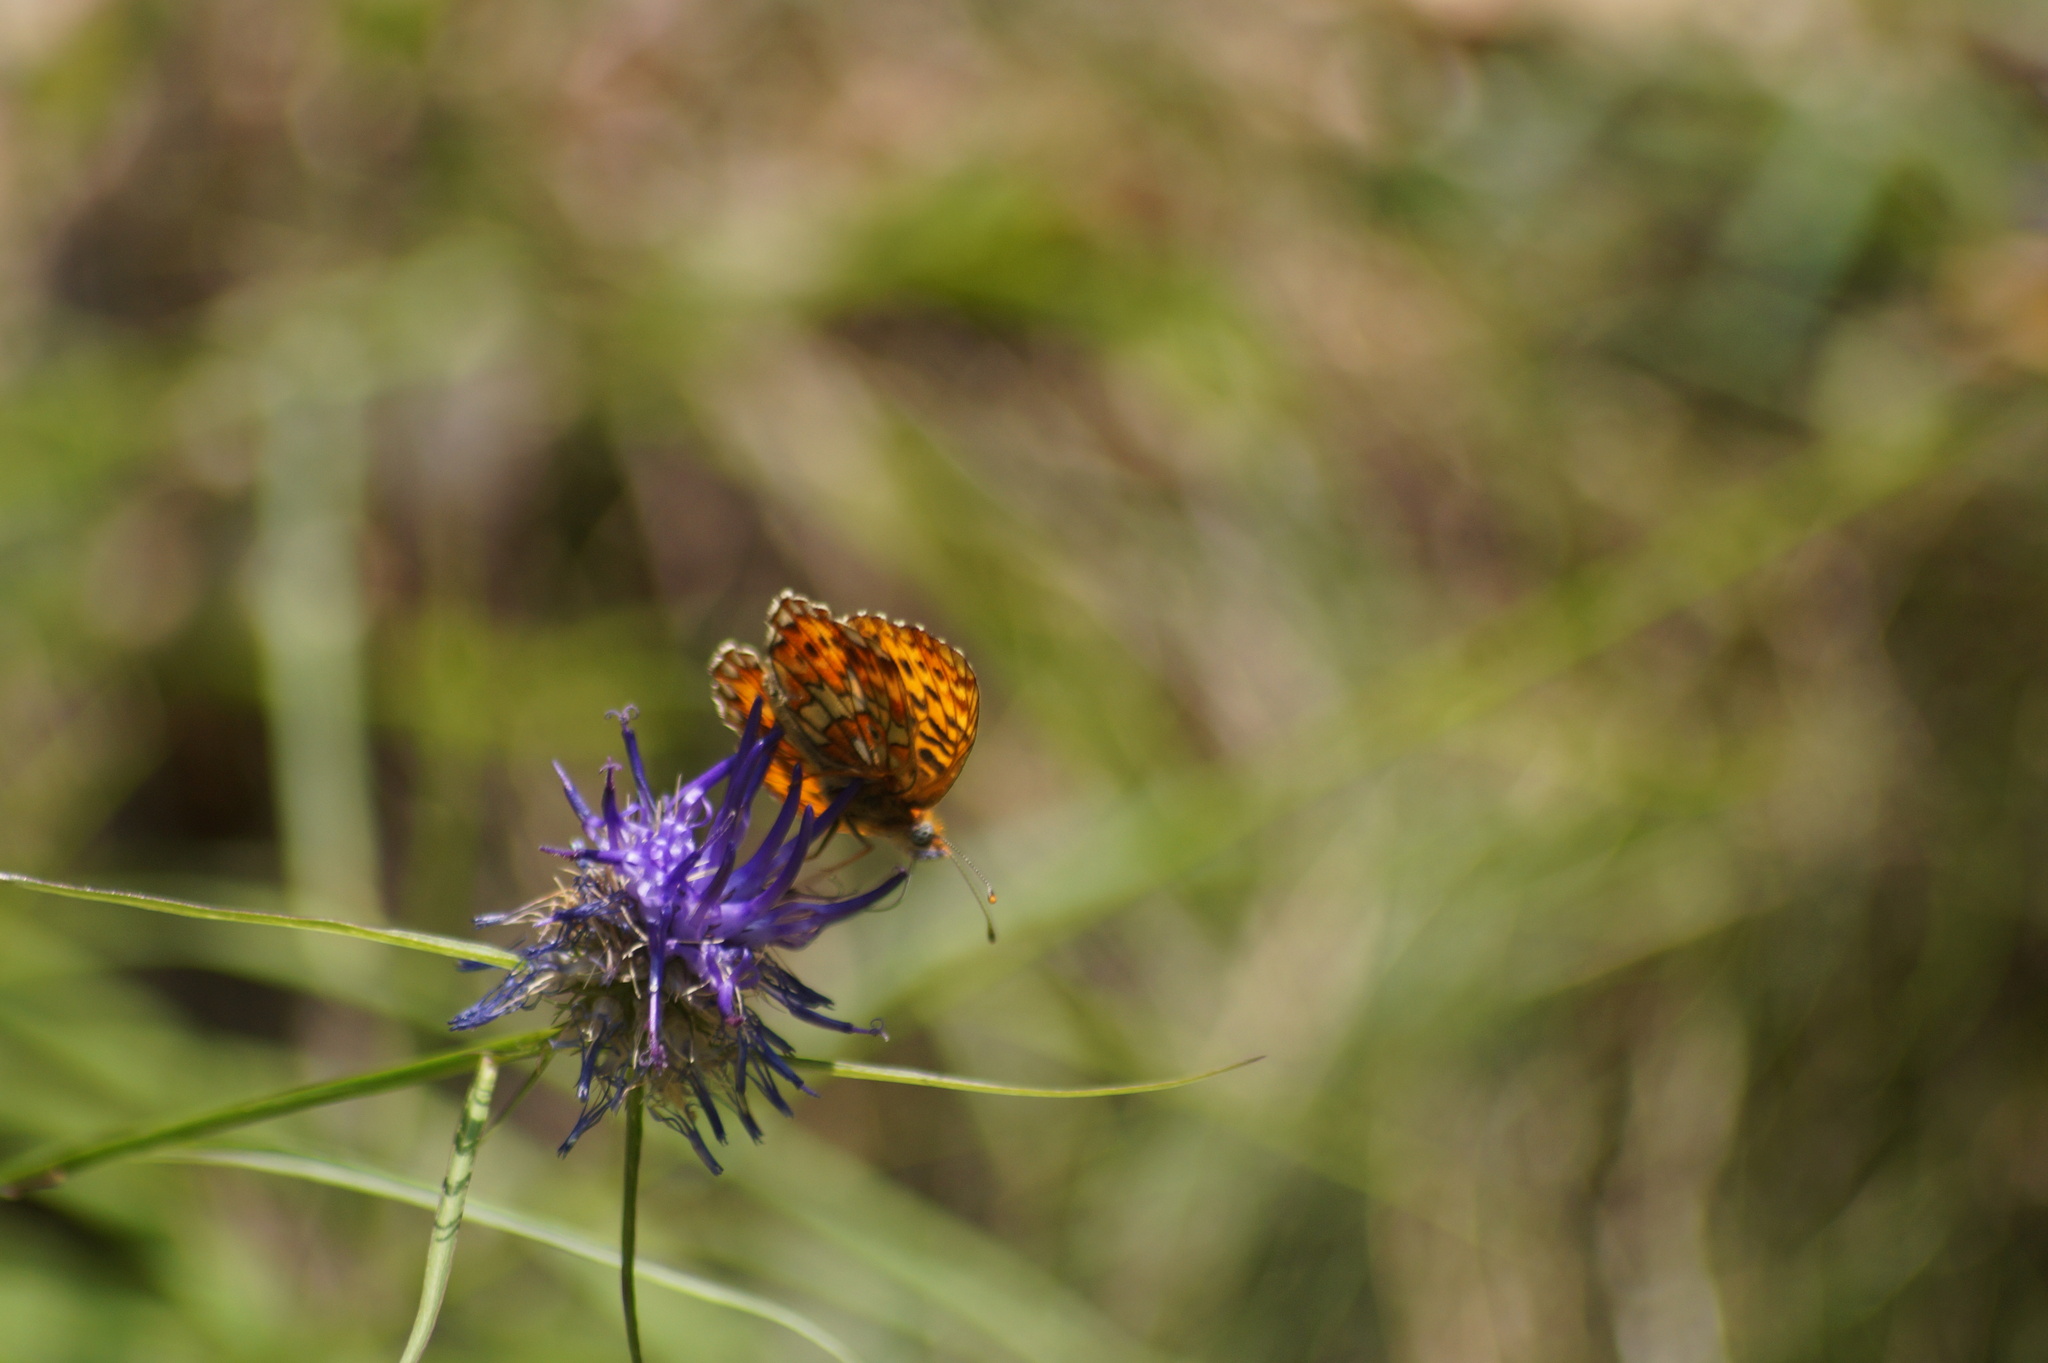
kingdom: Animalia
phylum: Arthropoda
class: Insecta
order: Lepidoptera
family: Nymphalidae
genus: Clossiana
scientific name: Clossiana euphrosyne
